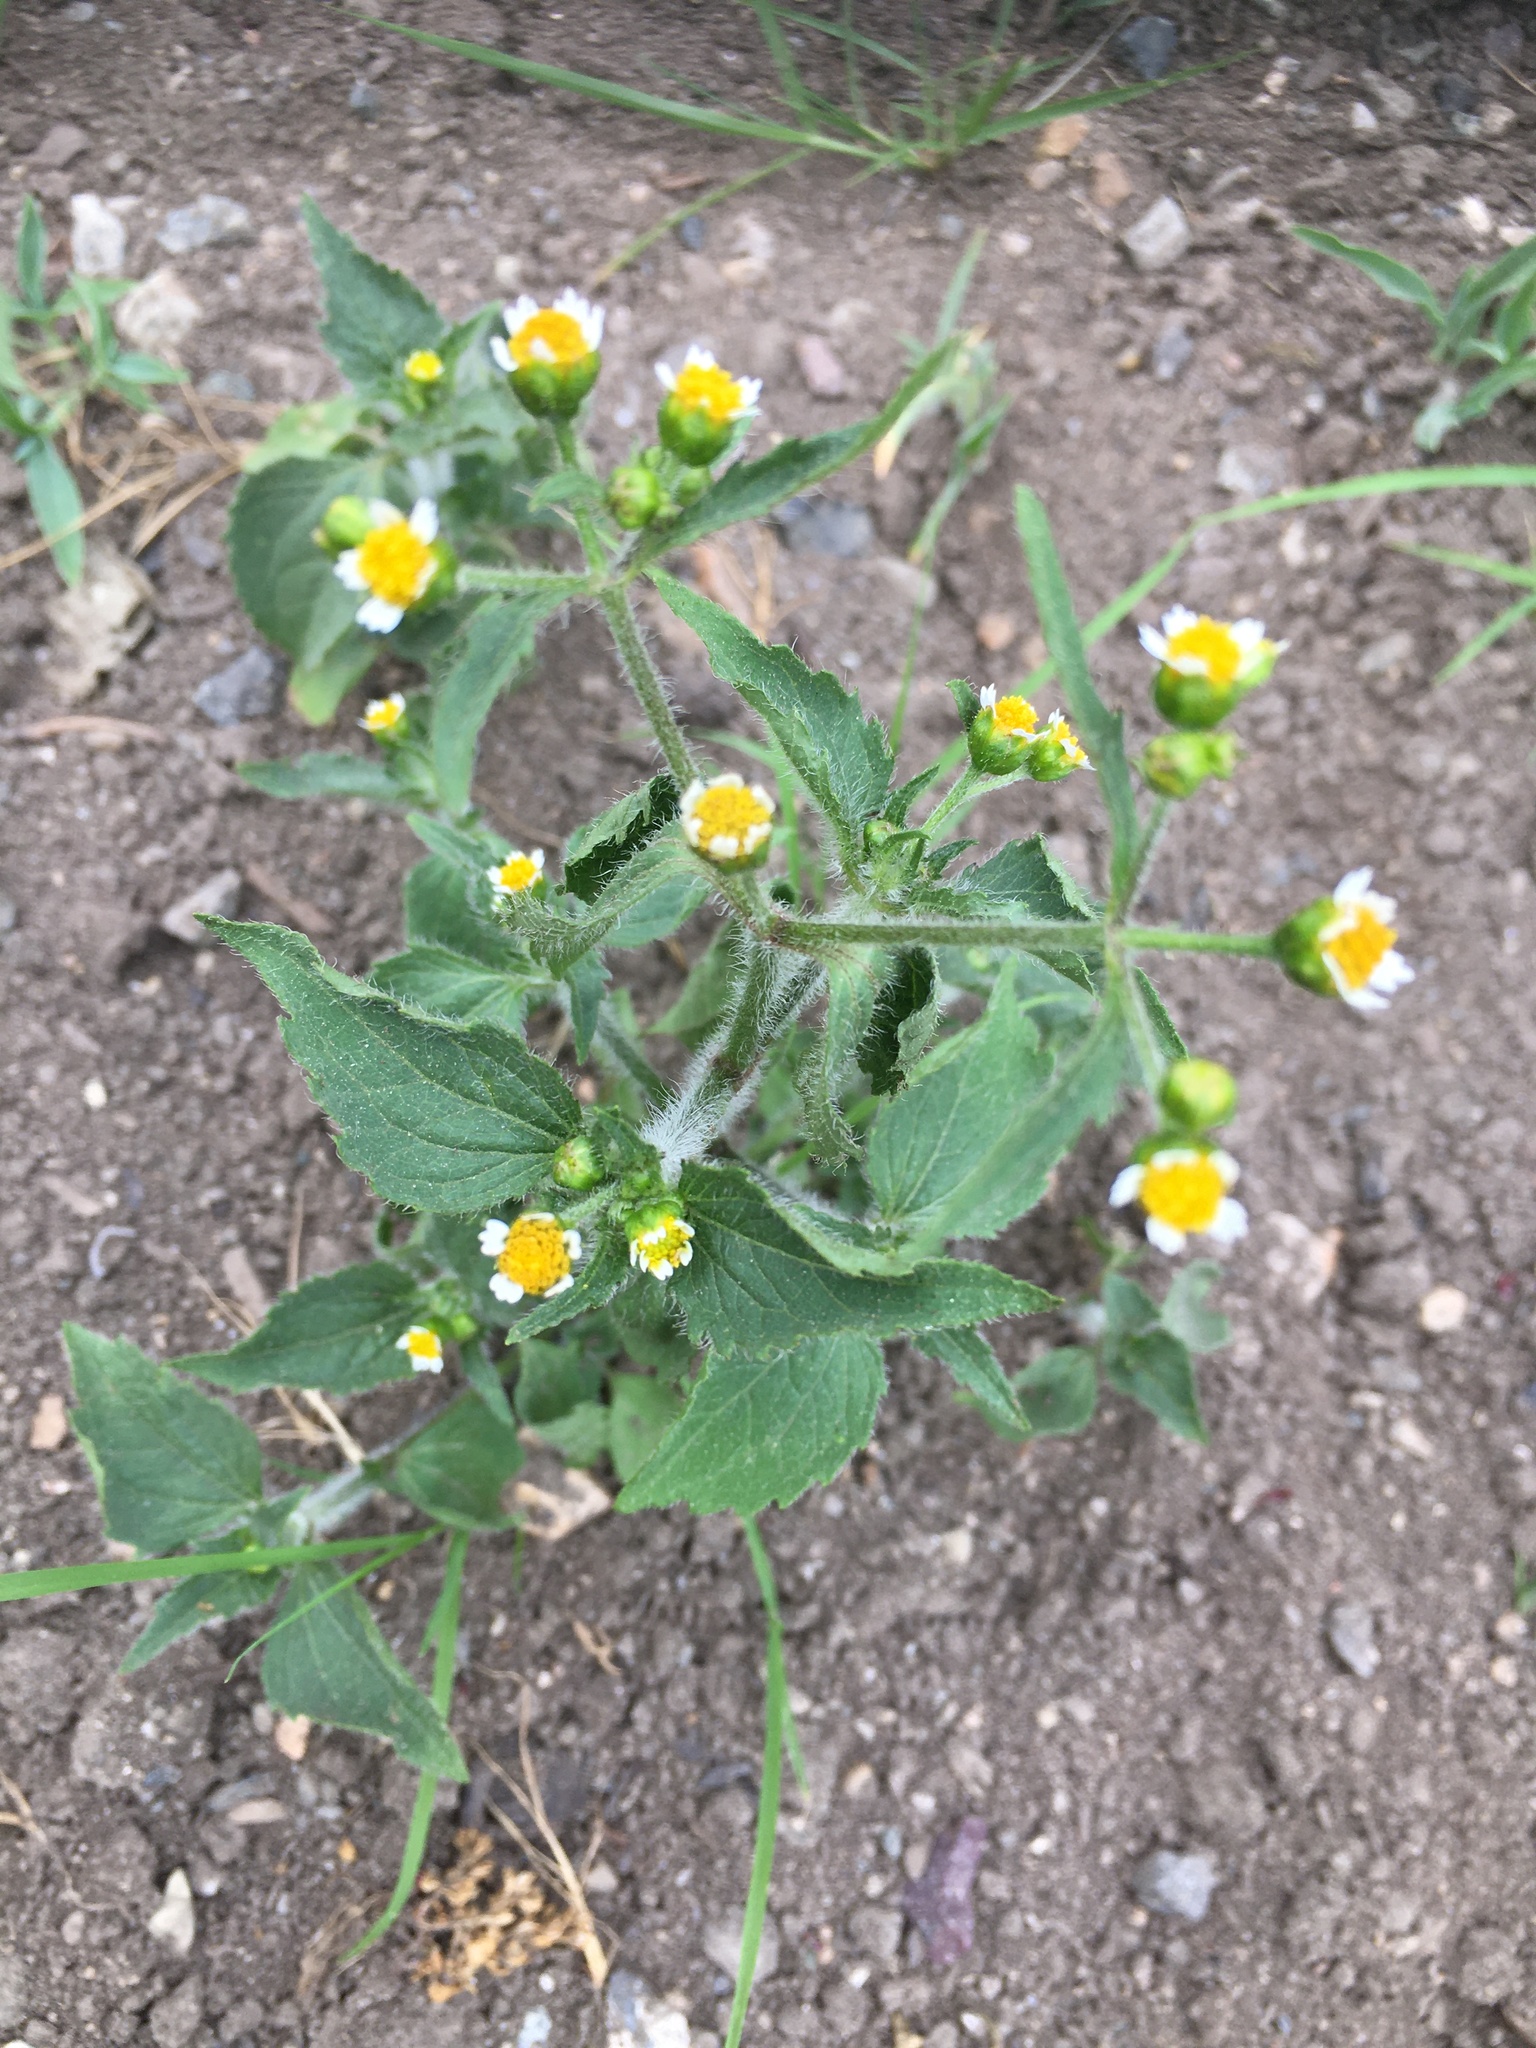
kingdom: Plantae
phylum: Tracheophyta
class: Magnoliopsida
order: Asterales
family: Asteraceae
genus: Galinsoga
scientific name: Galinsoga quadriradiata
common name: Shaggy soldier
